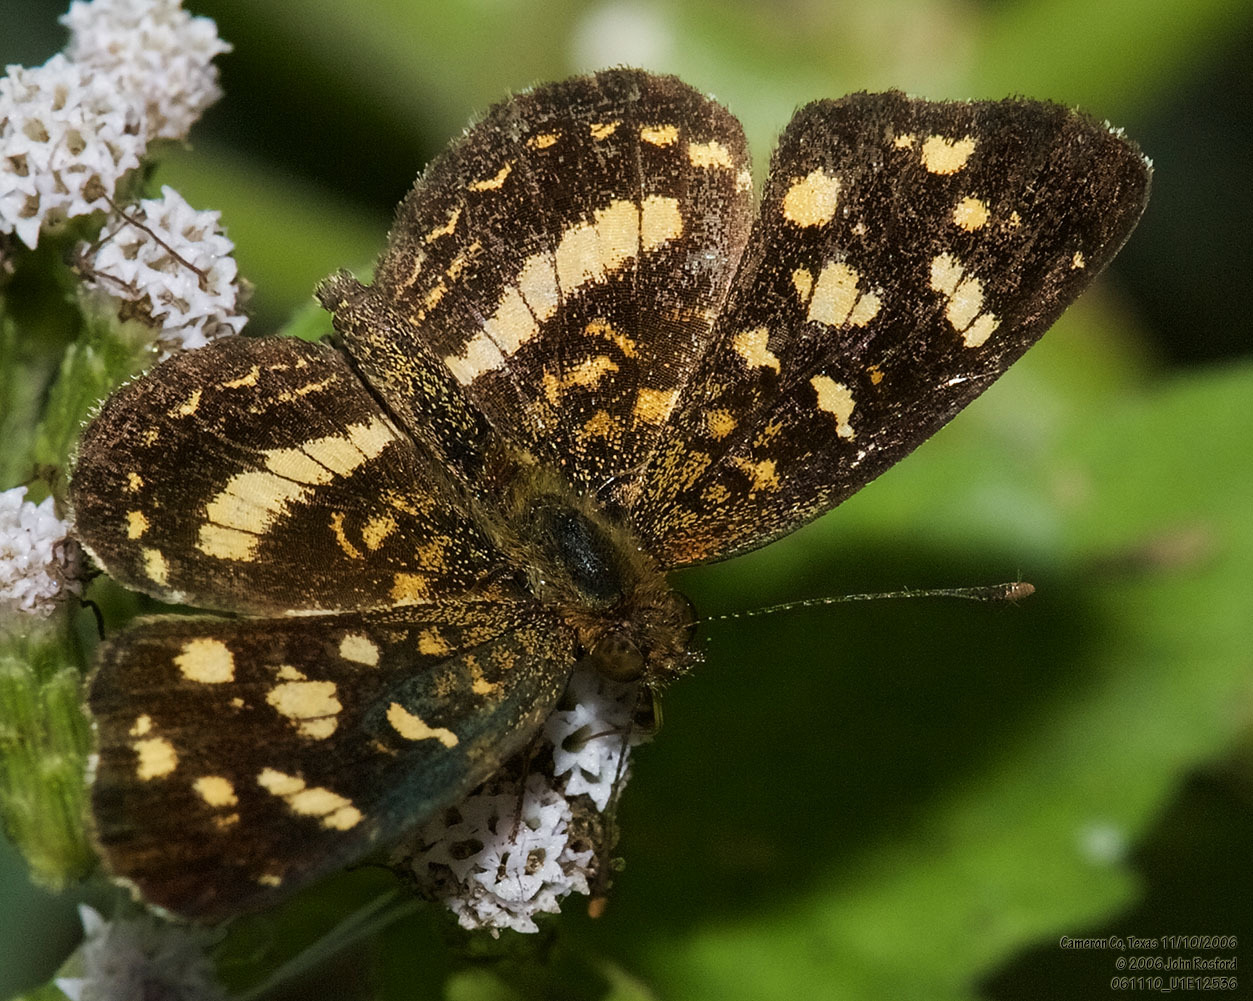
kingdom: Animalia
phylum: Arthropoda
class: Insecta
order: Lepidoptera
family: Nymphalidae
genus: Anthanassa
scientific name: Anthanassa tulcis
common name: Pale-banded crescent
